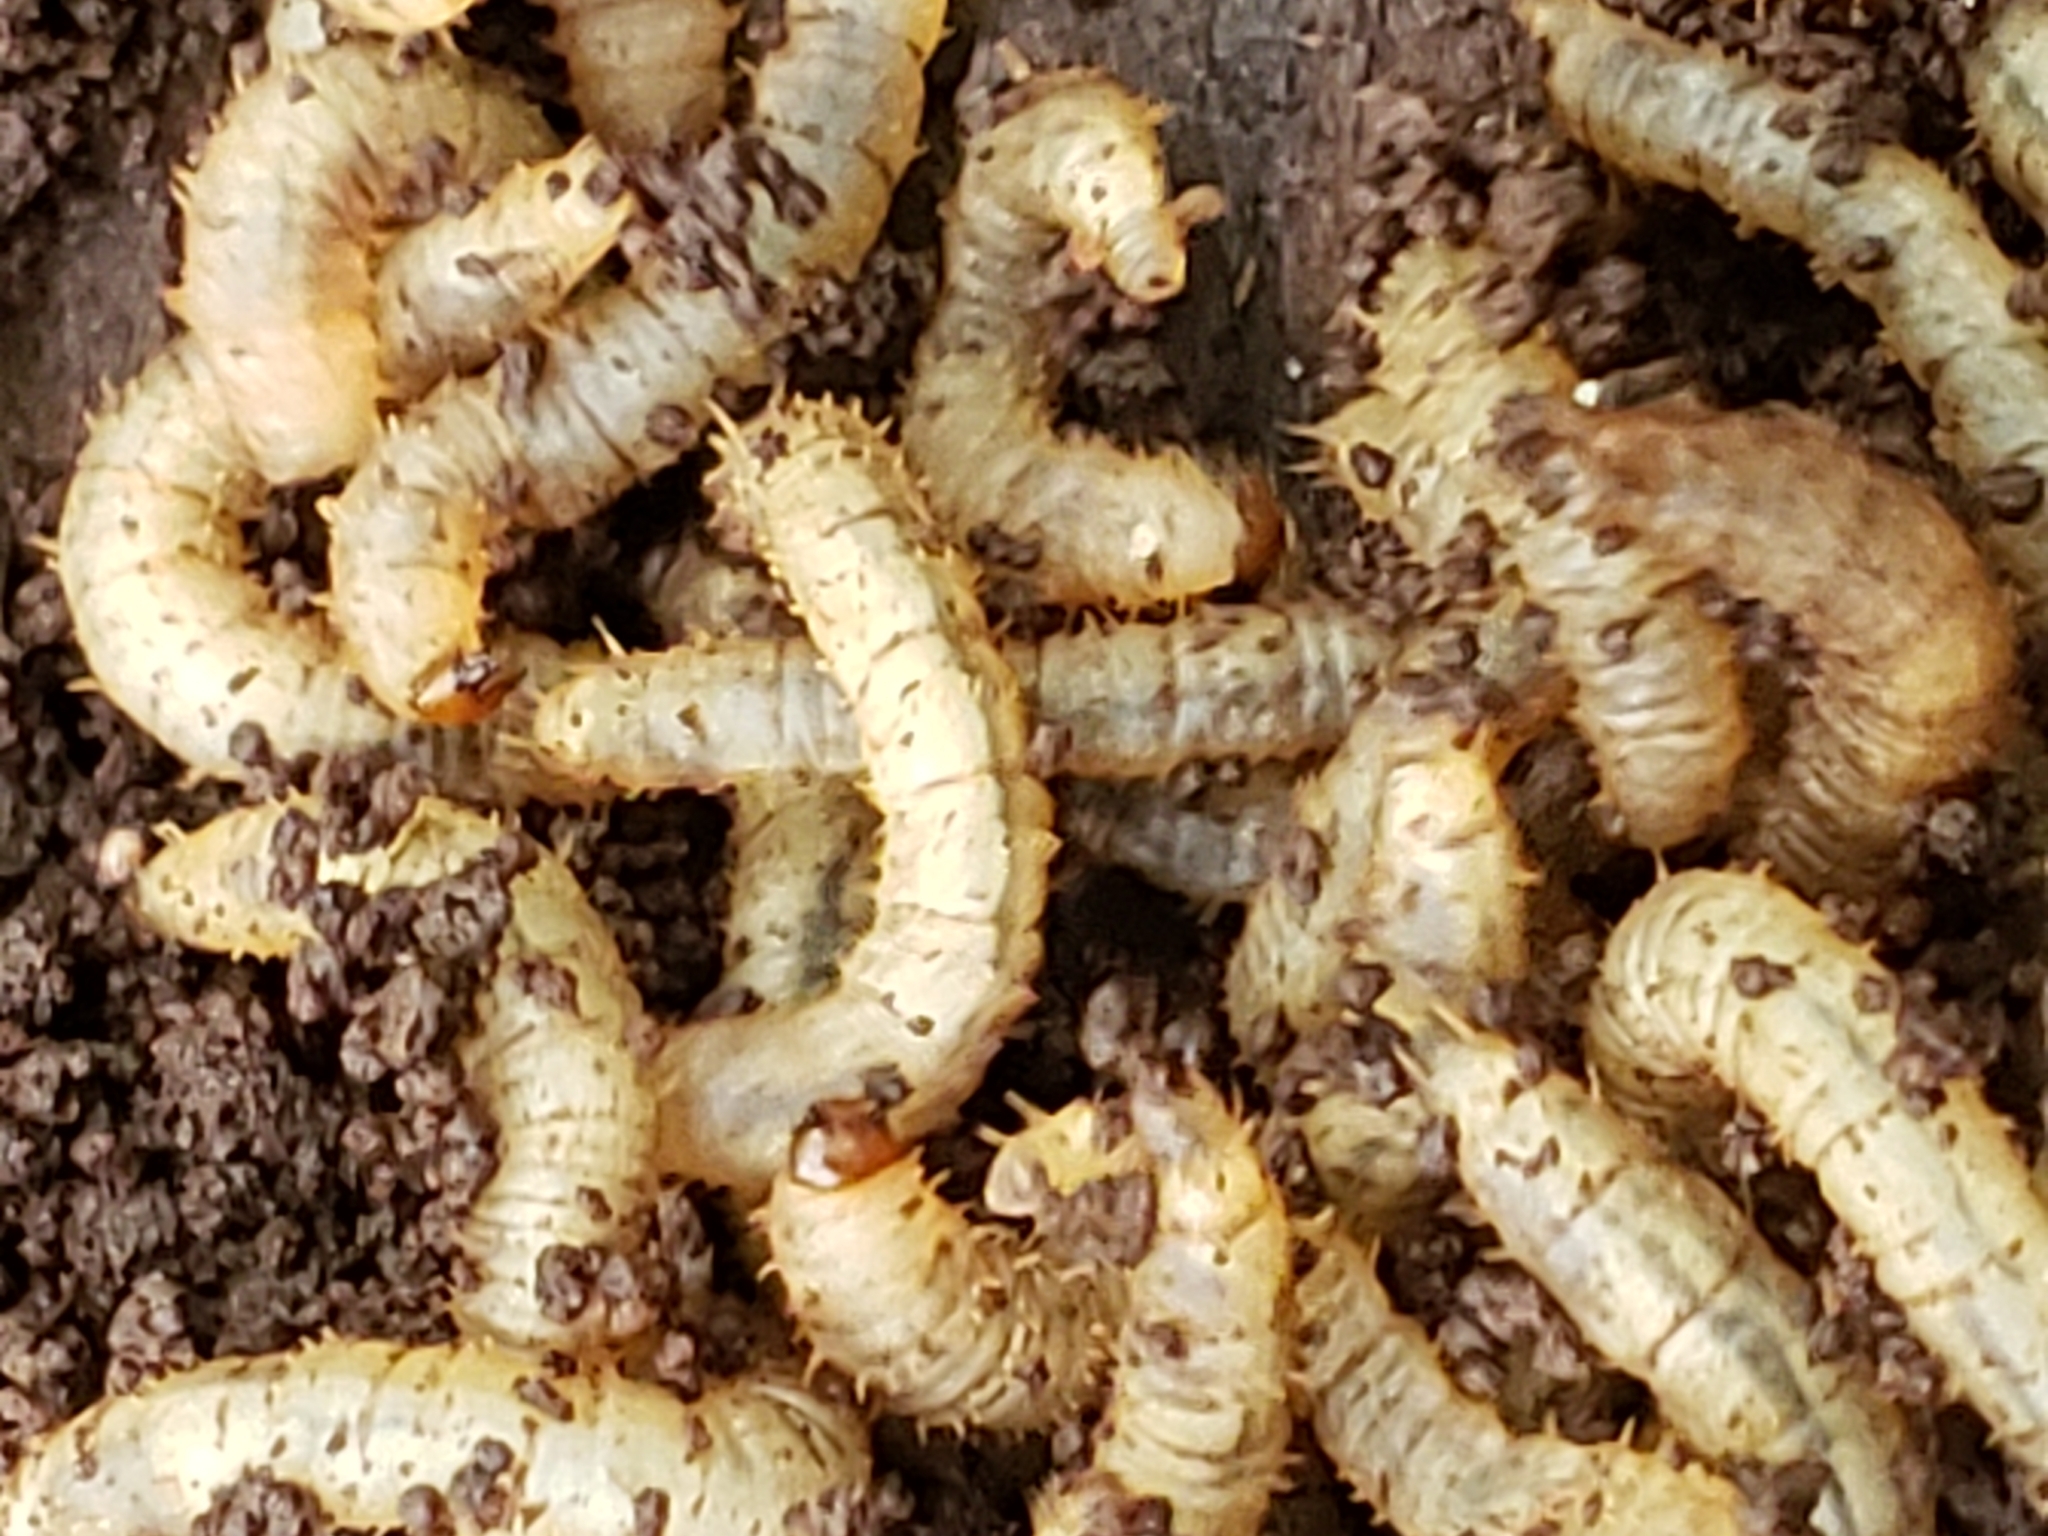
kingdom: Animalia
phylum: Arthropoda
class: Insecta
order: Diptera
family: Bibionidae
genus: Bibio
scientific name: Bibio
